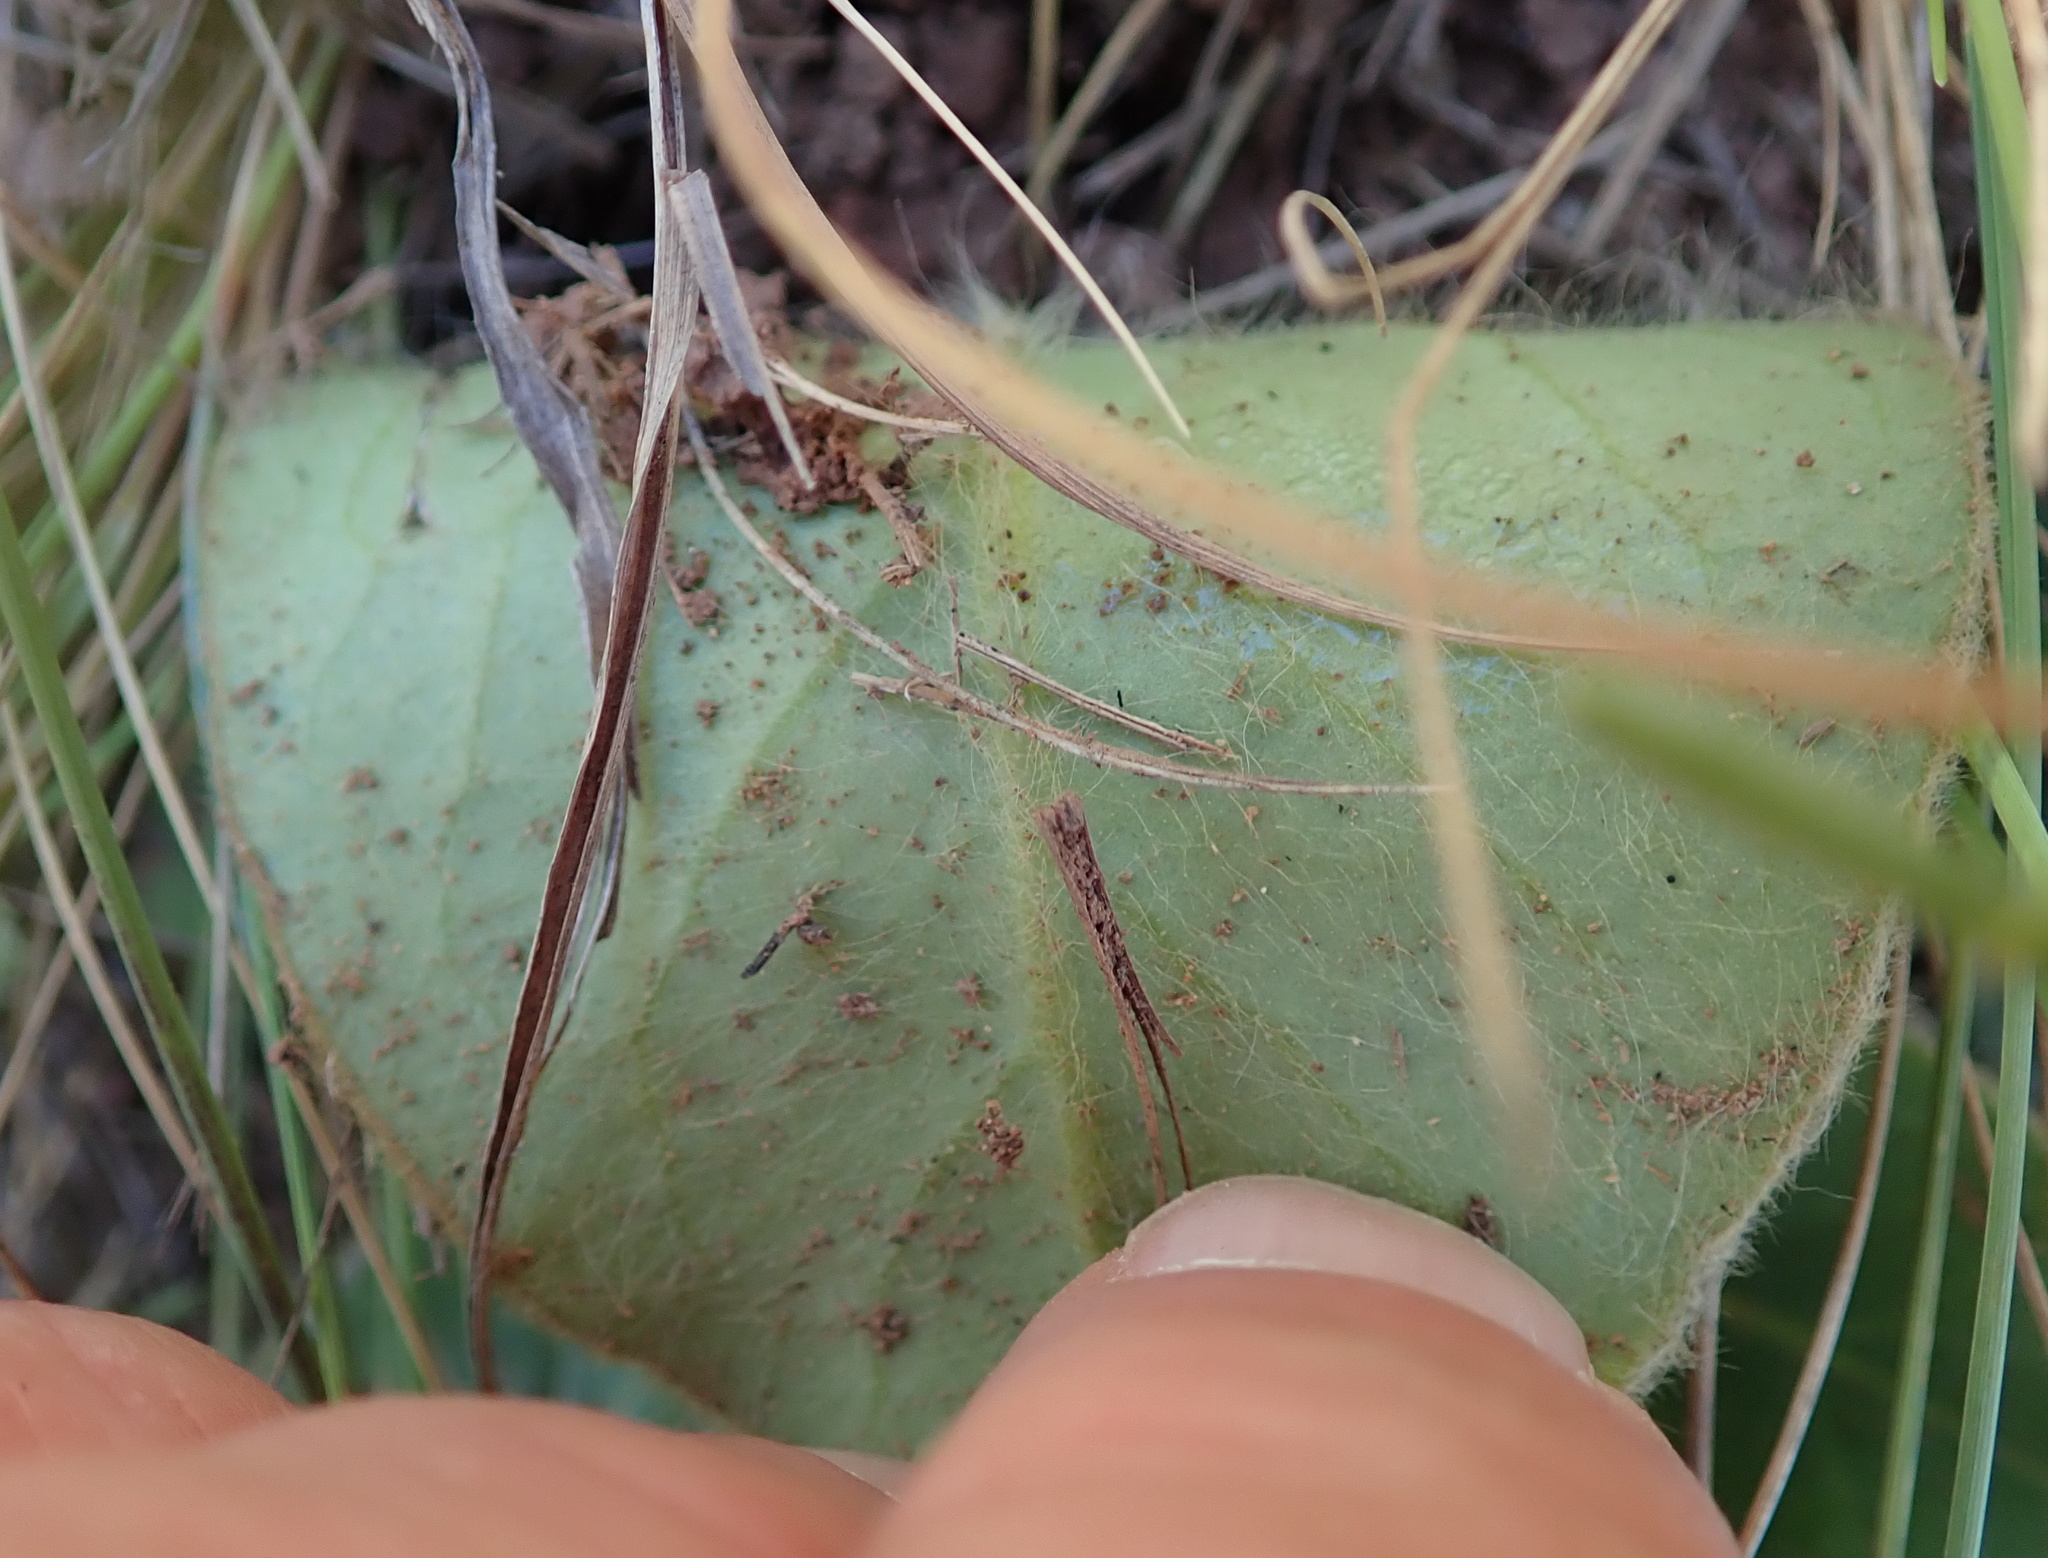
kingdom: Plantae
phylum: Tracheophyta
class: Magnoliopsida
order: Asterales
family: Asteraceae
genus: Piloselloides
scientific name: Piloselloides hirsuta
